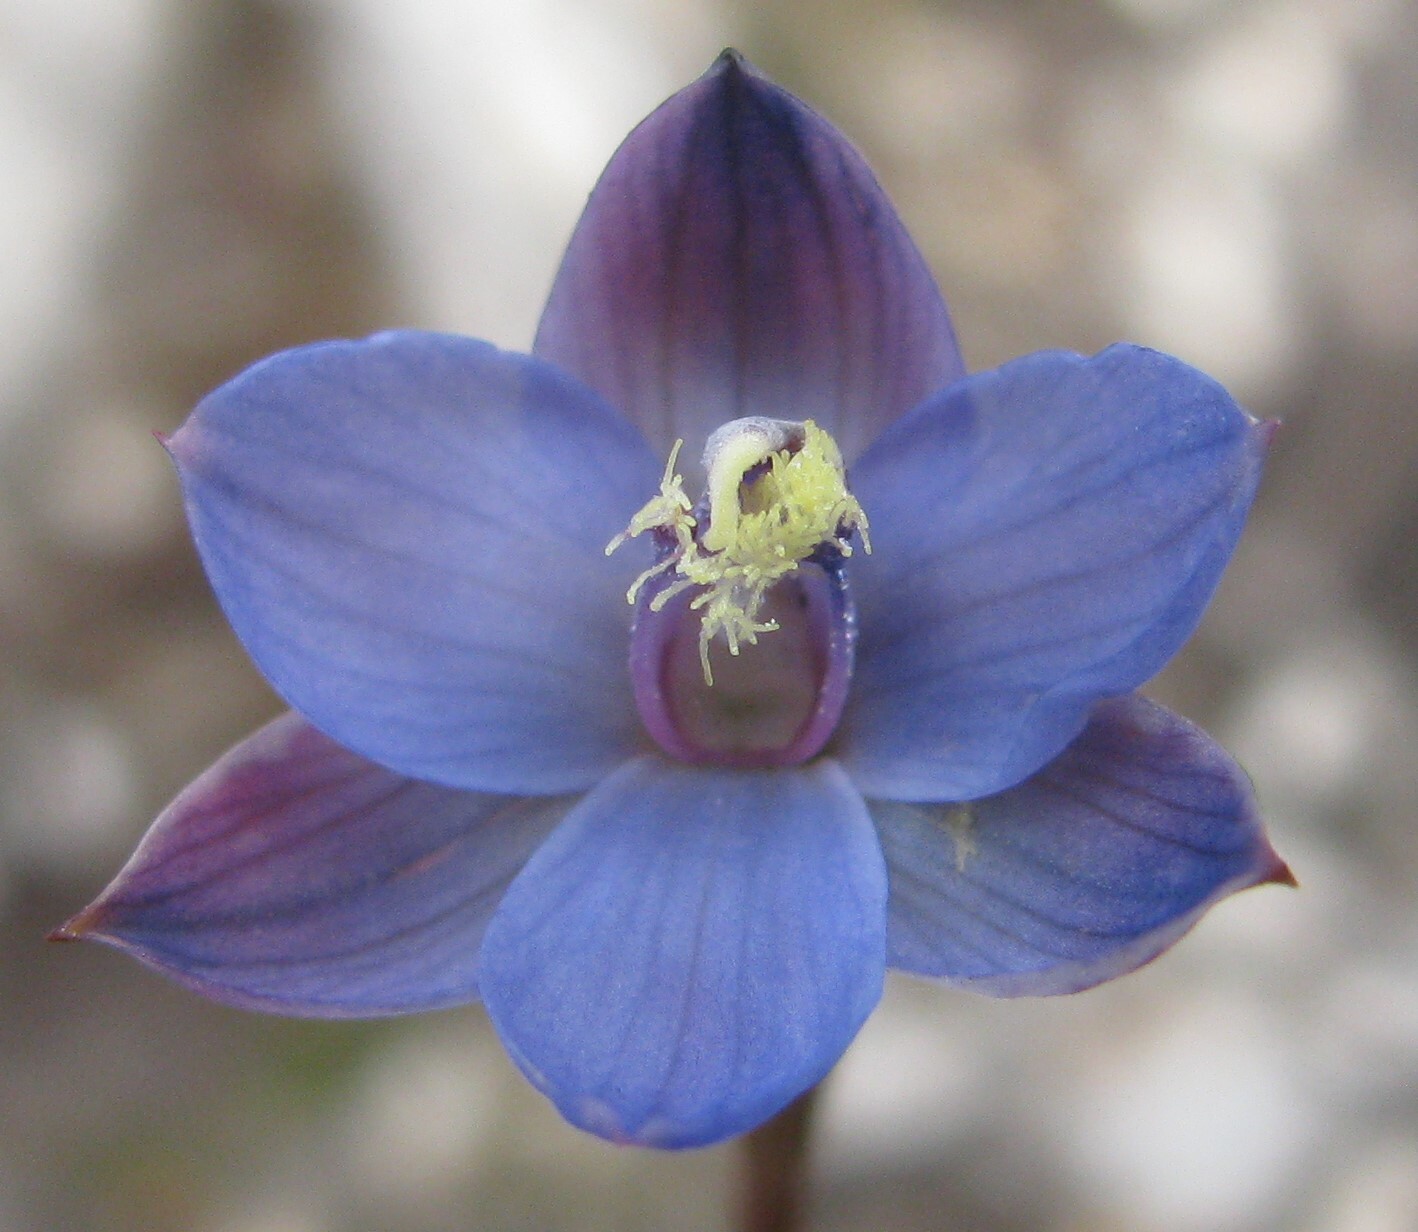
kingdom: Plantae
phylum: Tracheophyta
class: Liliopsida
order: Asparagales
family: Orchidaceae
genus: Thelymitra
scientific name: Thelymitra mucida
